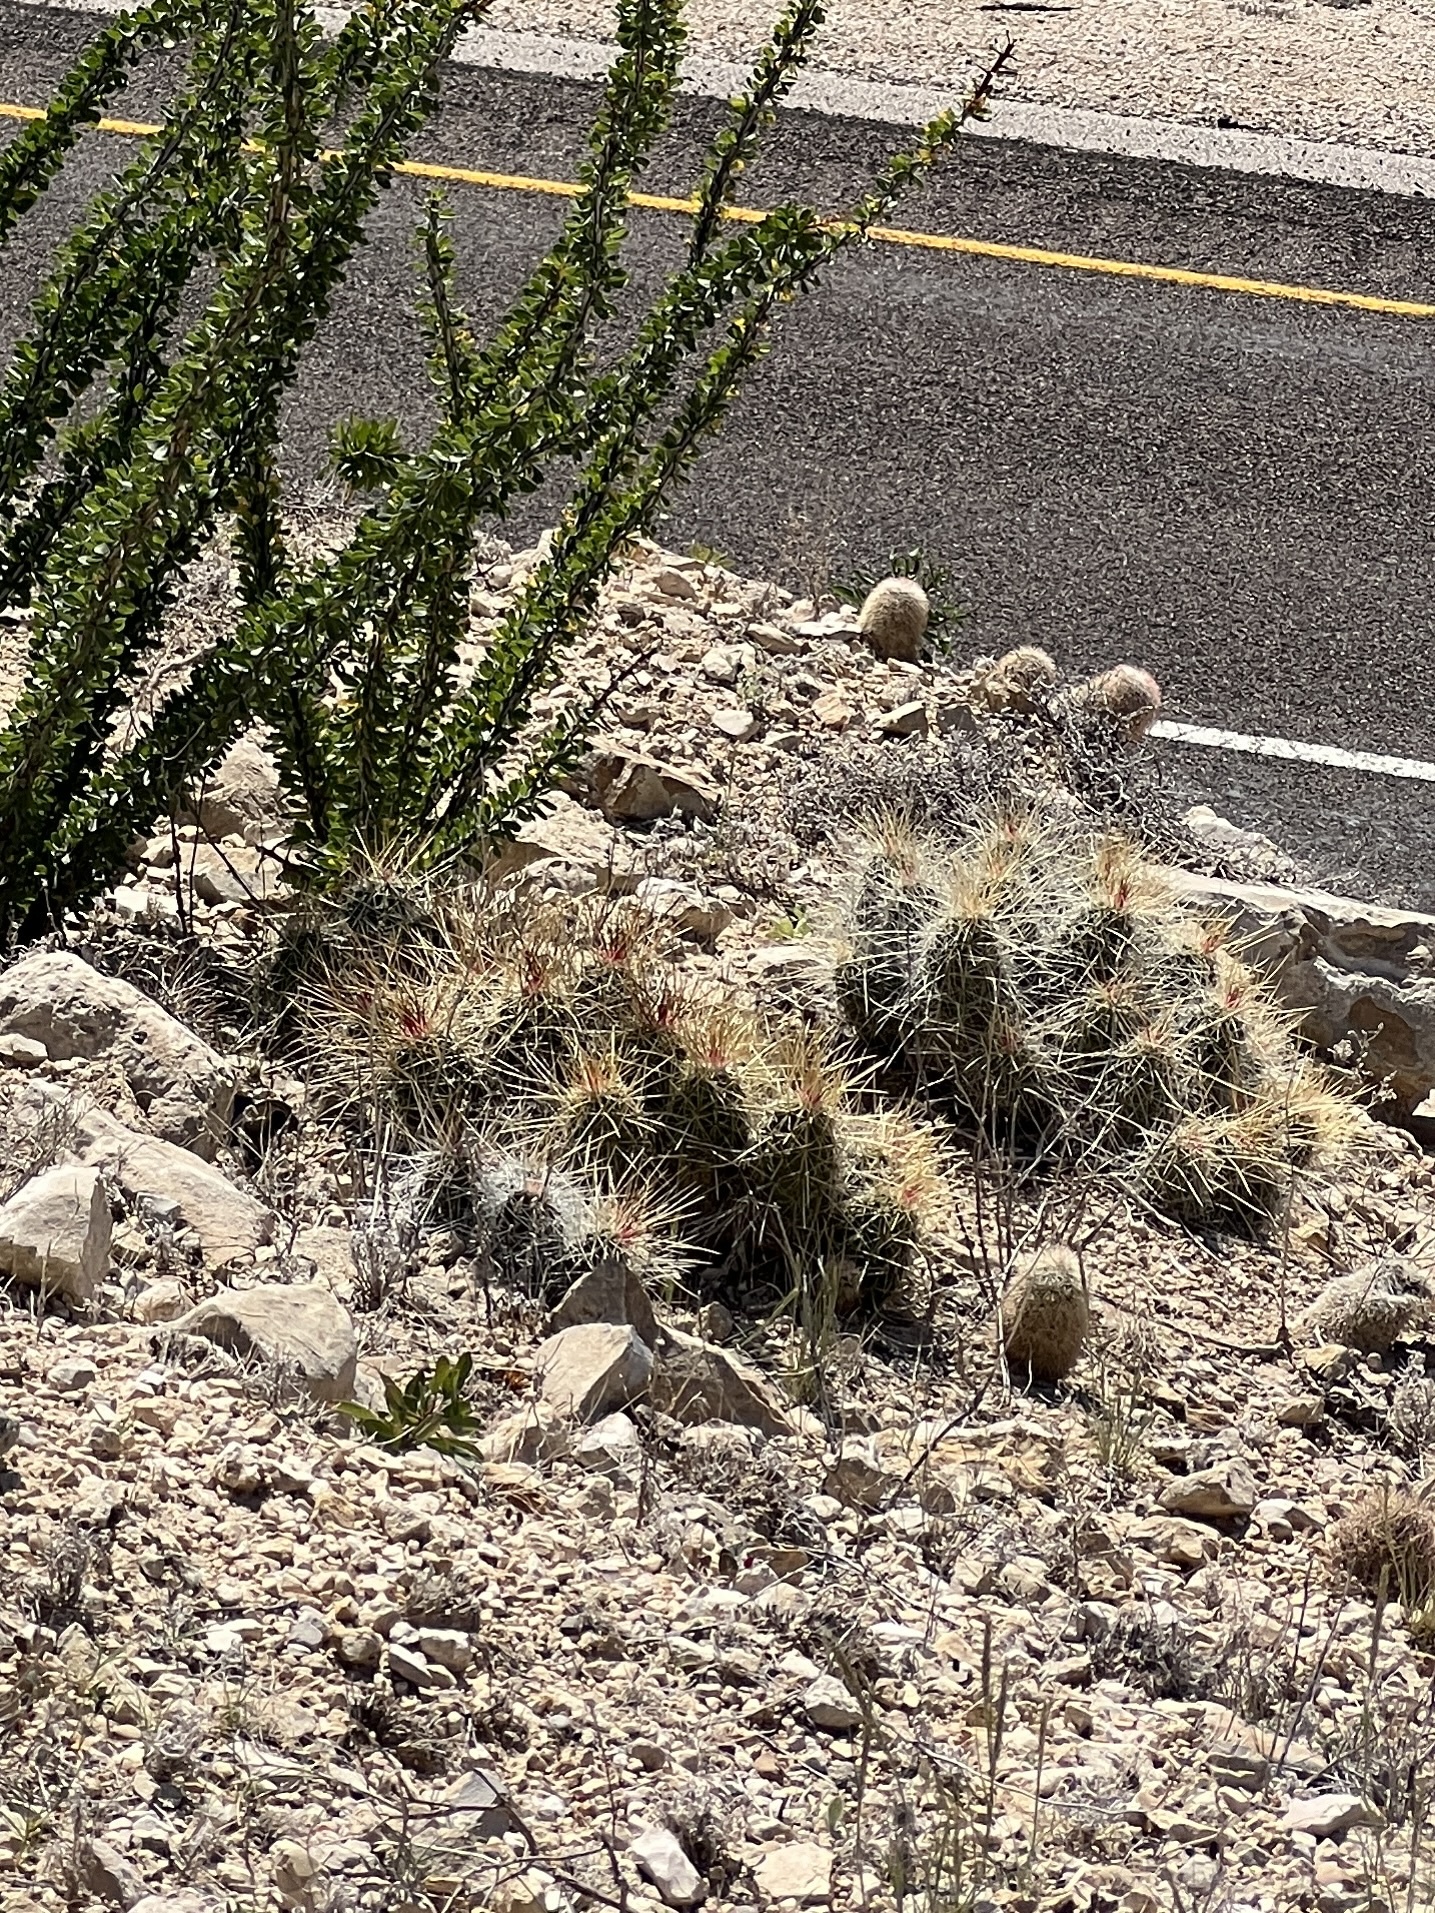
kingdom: Plantae
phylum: Tracheophyta
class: Magnoliopsida
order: Caryophyllales
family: Cactaceae
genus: Echinocereus
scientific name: Echinocereus stramineus
